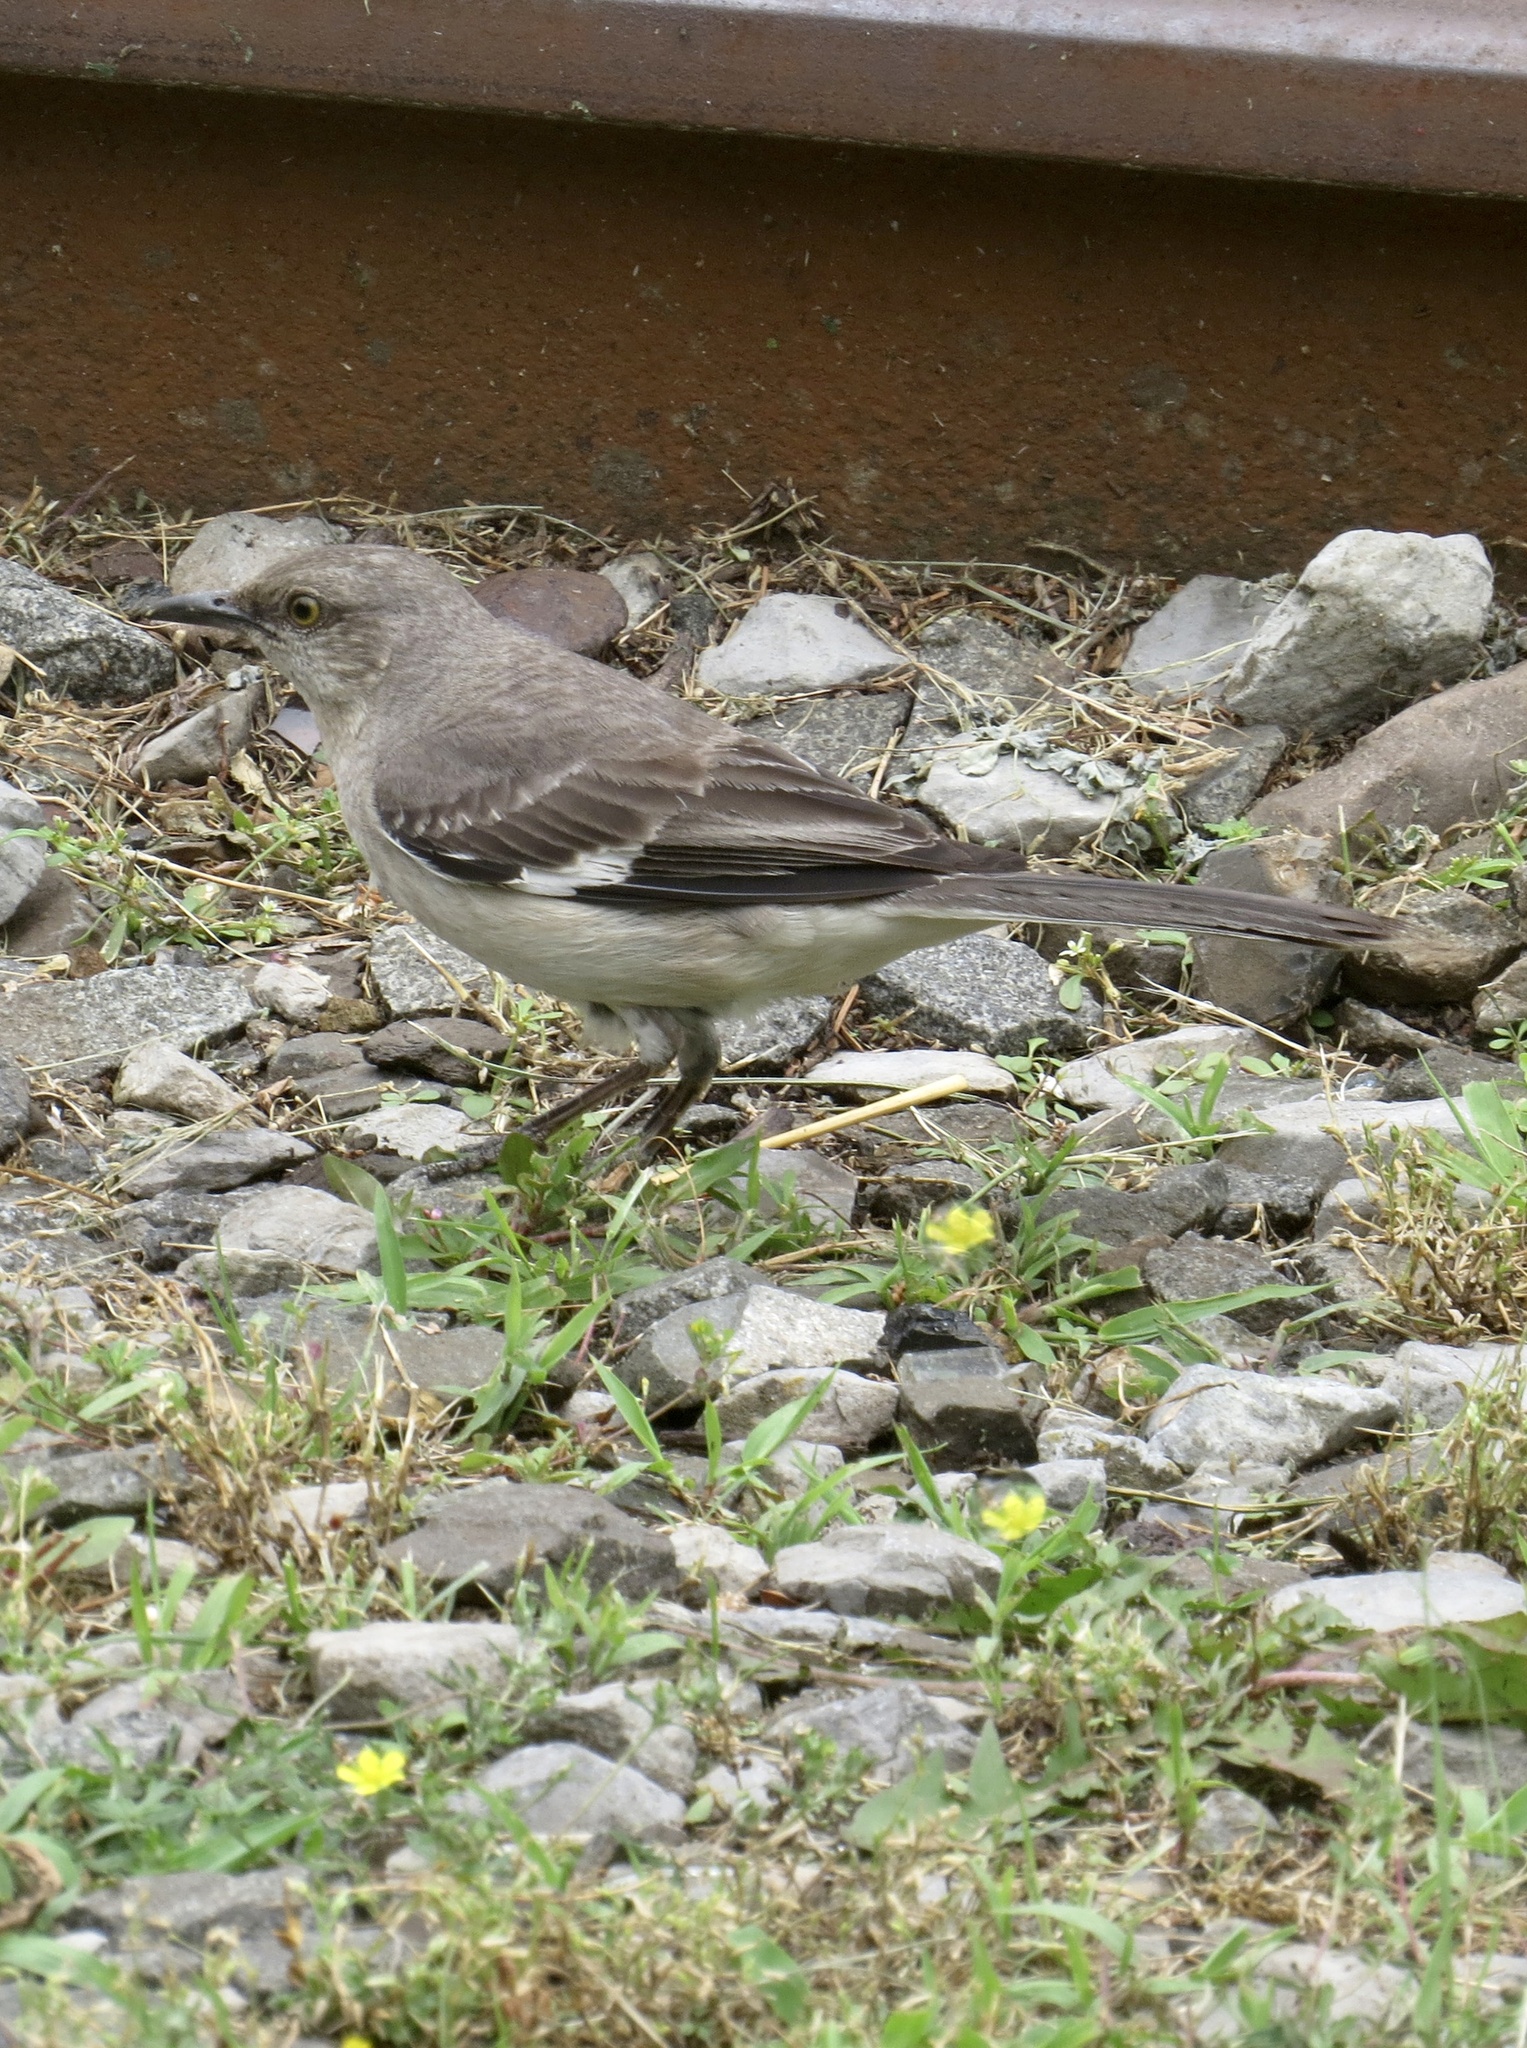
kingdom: Animalia
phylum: Chordata
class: Aves
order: Passeriformes
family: Mimidae
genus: Mimus
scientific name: Mimus polyglottos
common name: Northern mockingbird
